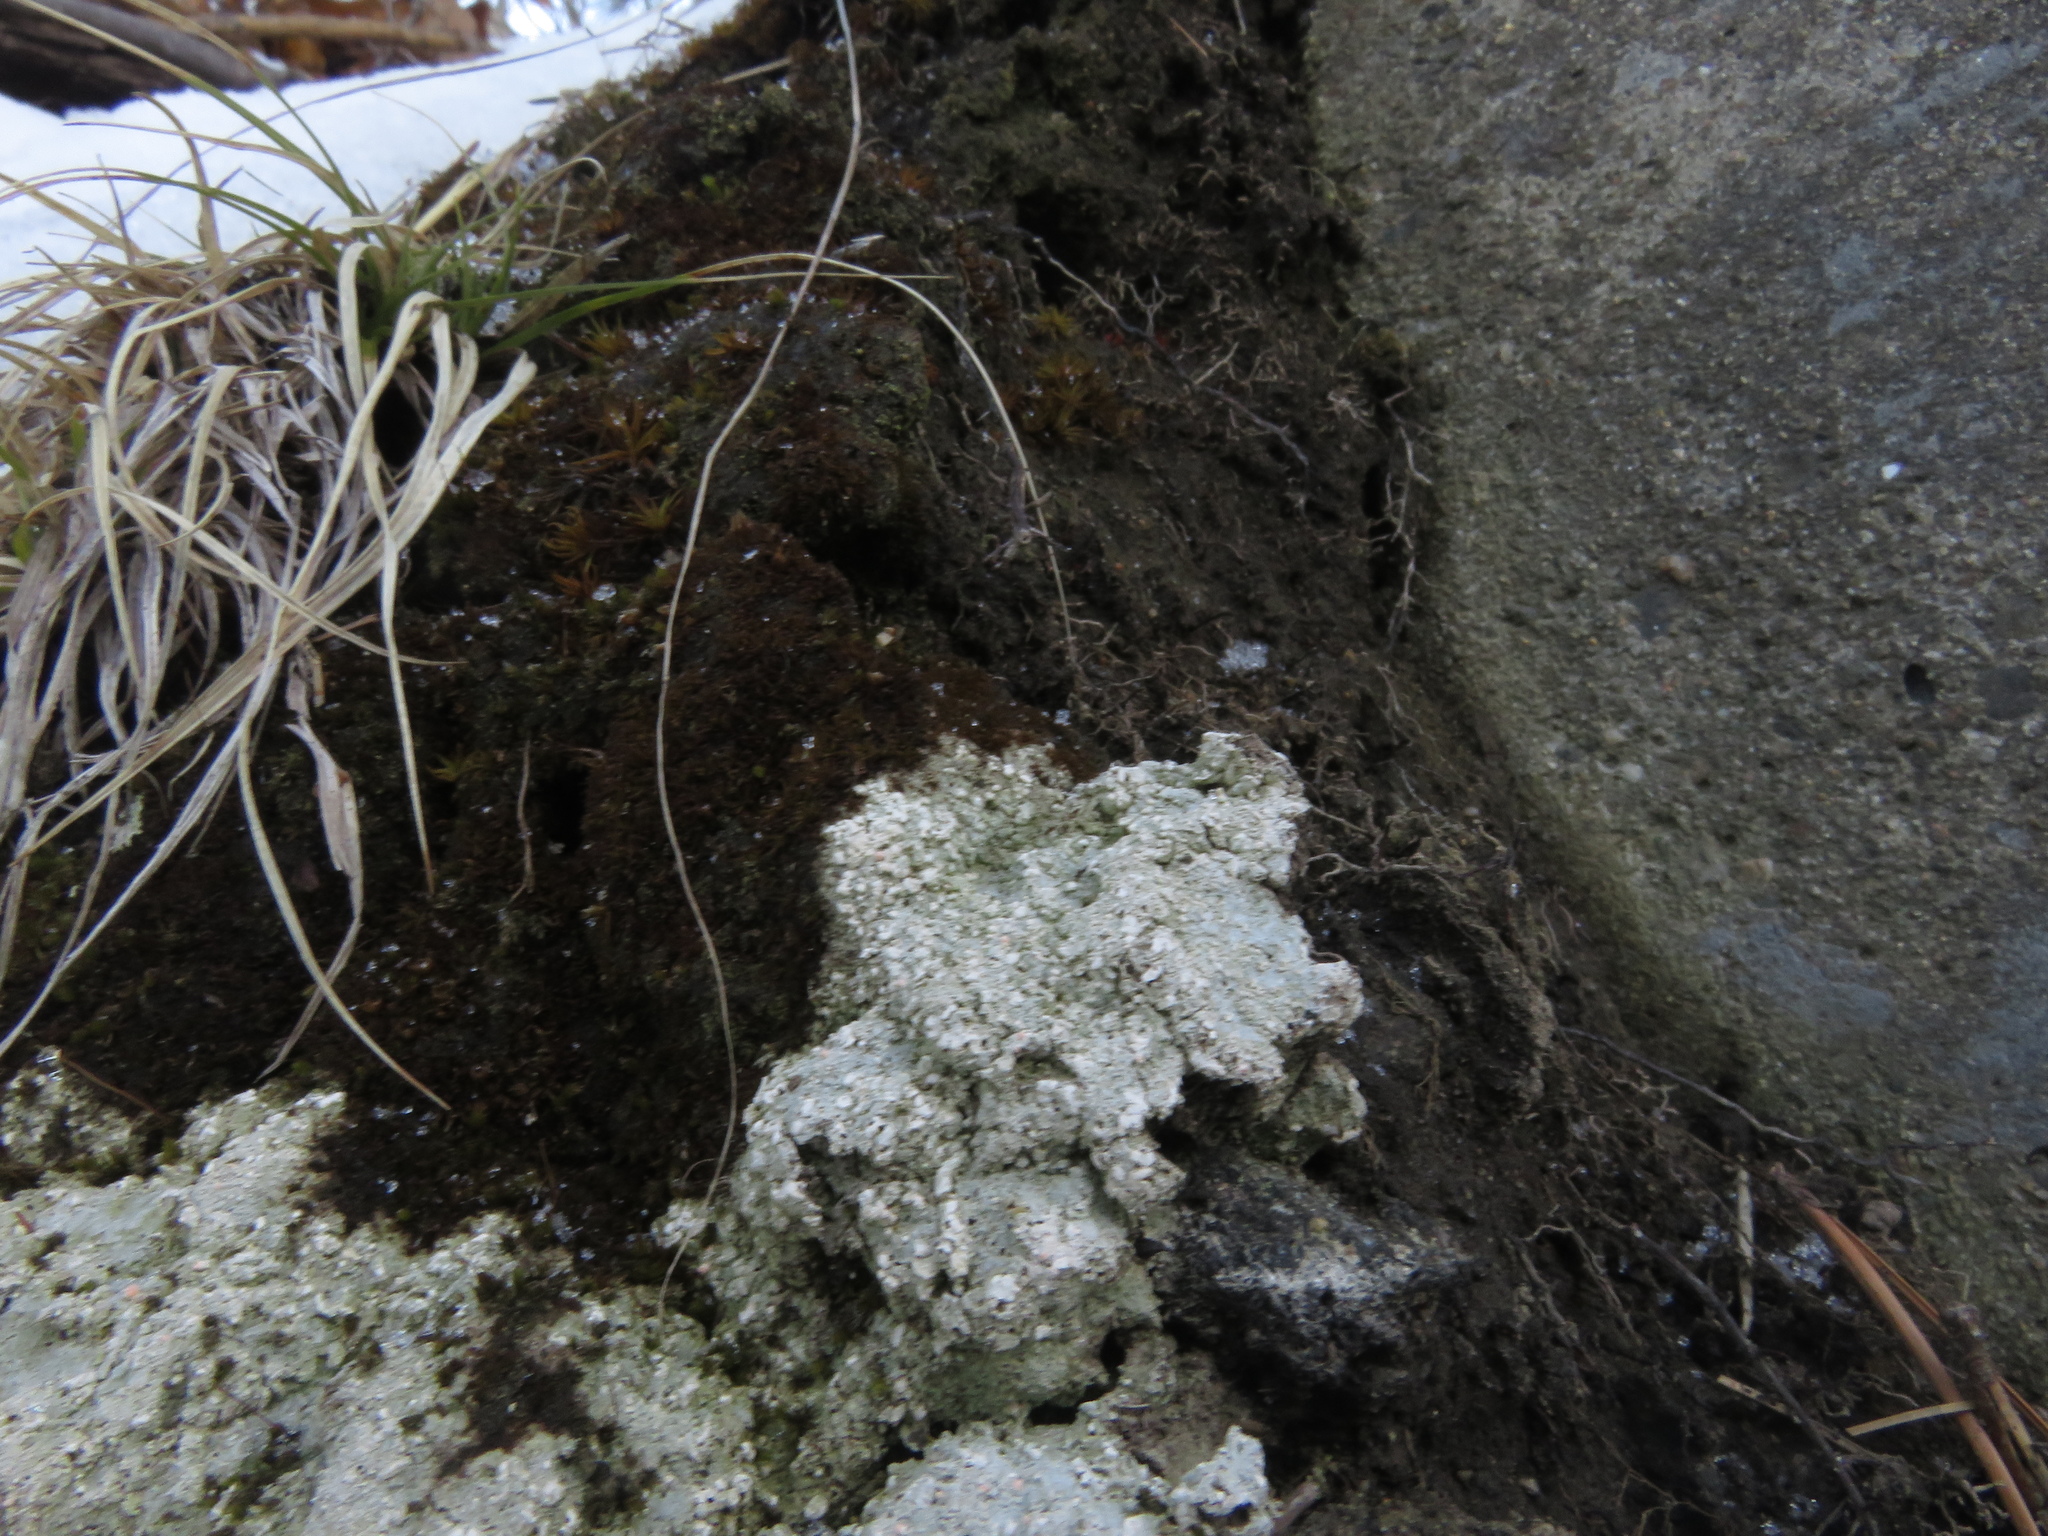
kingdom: Fungi
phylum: Ascomycota
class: Lecanoromycetes
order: Pertusariales
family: Icmadophilaceae
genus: Dibaeis
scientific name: Dibaeis baeomyces
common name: Pink earth lichen
